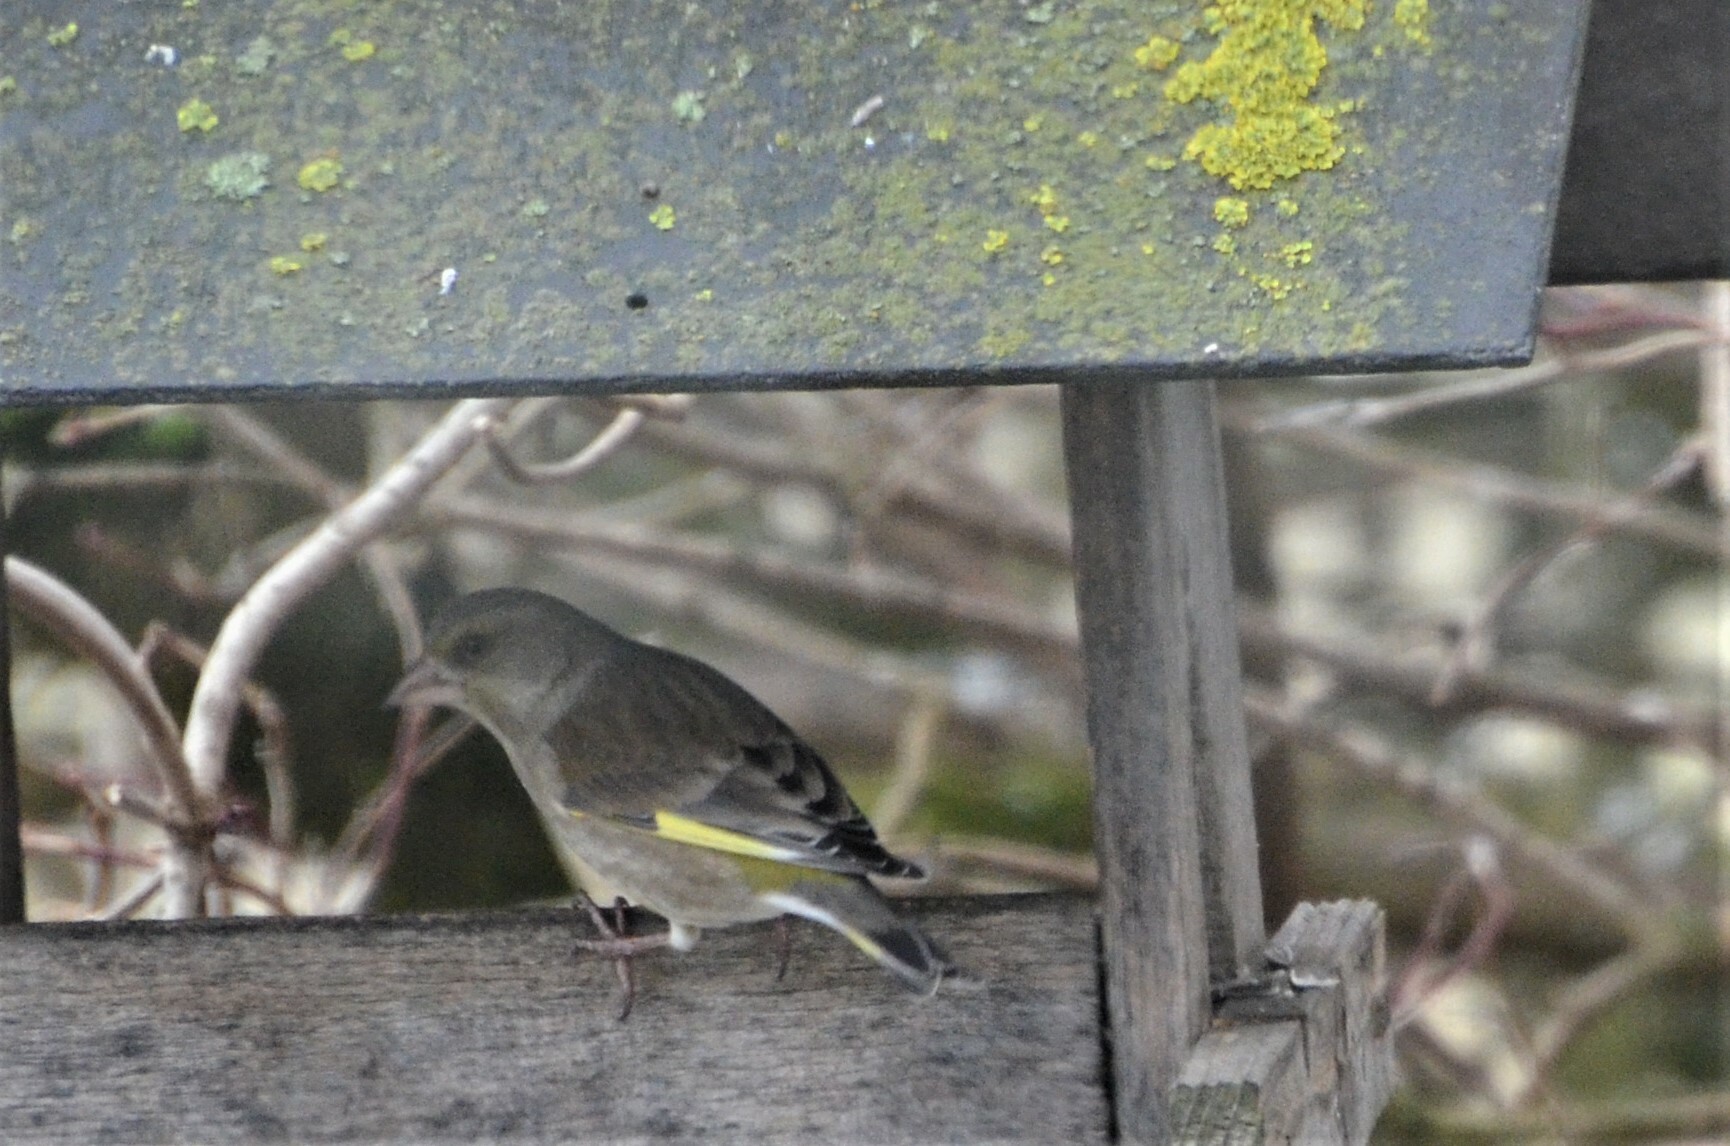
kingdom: Plantae
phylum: Tracheophyta
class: Liliopsida
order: Poales
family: Poaceae
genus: Chloris
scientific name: Chloris chloris
